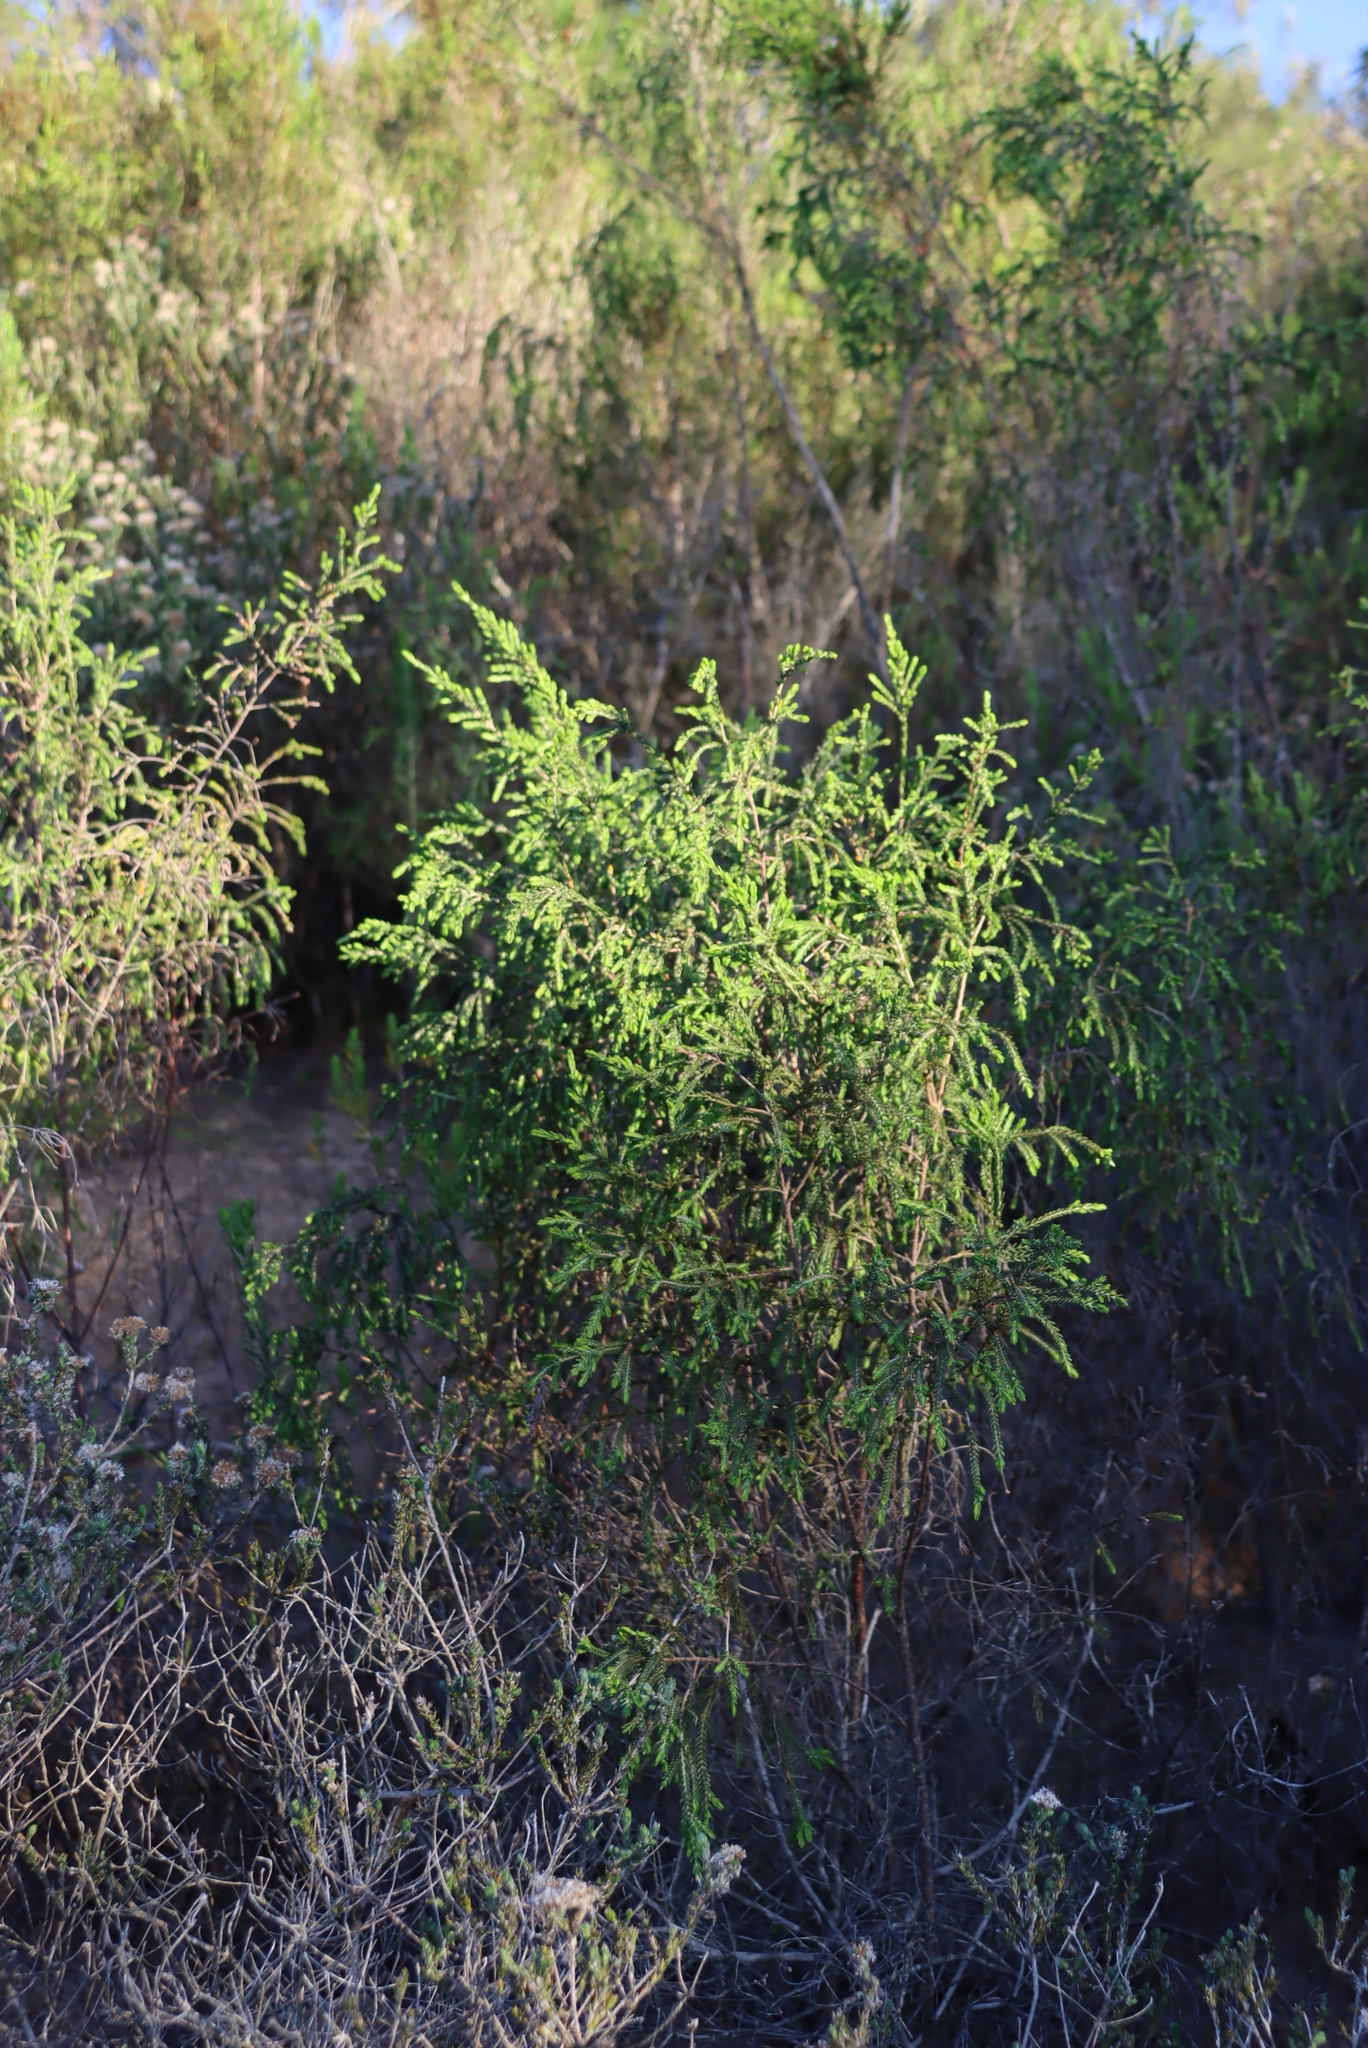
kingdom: Plantae
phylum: Tracheophyta
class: Magnoliopsida
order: Malvales
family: Thymelaeaceae
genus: Passerina
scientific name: Passerina falcifolia
